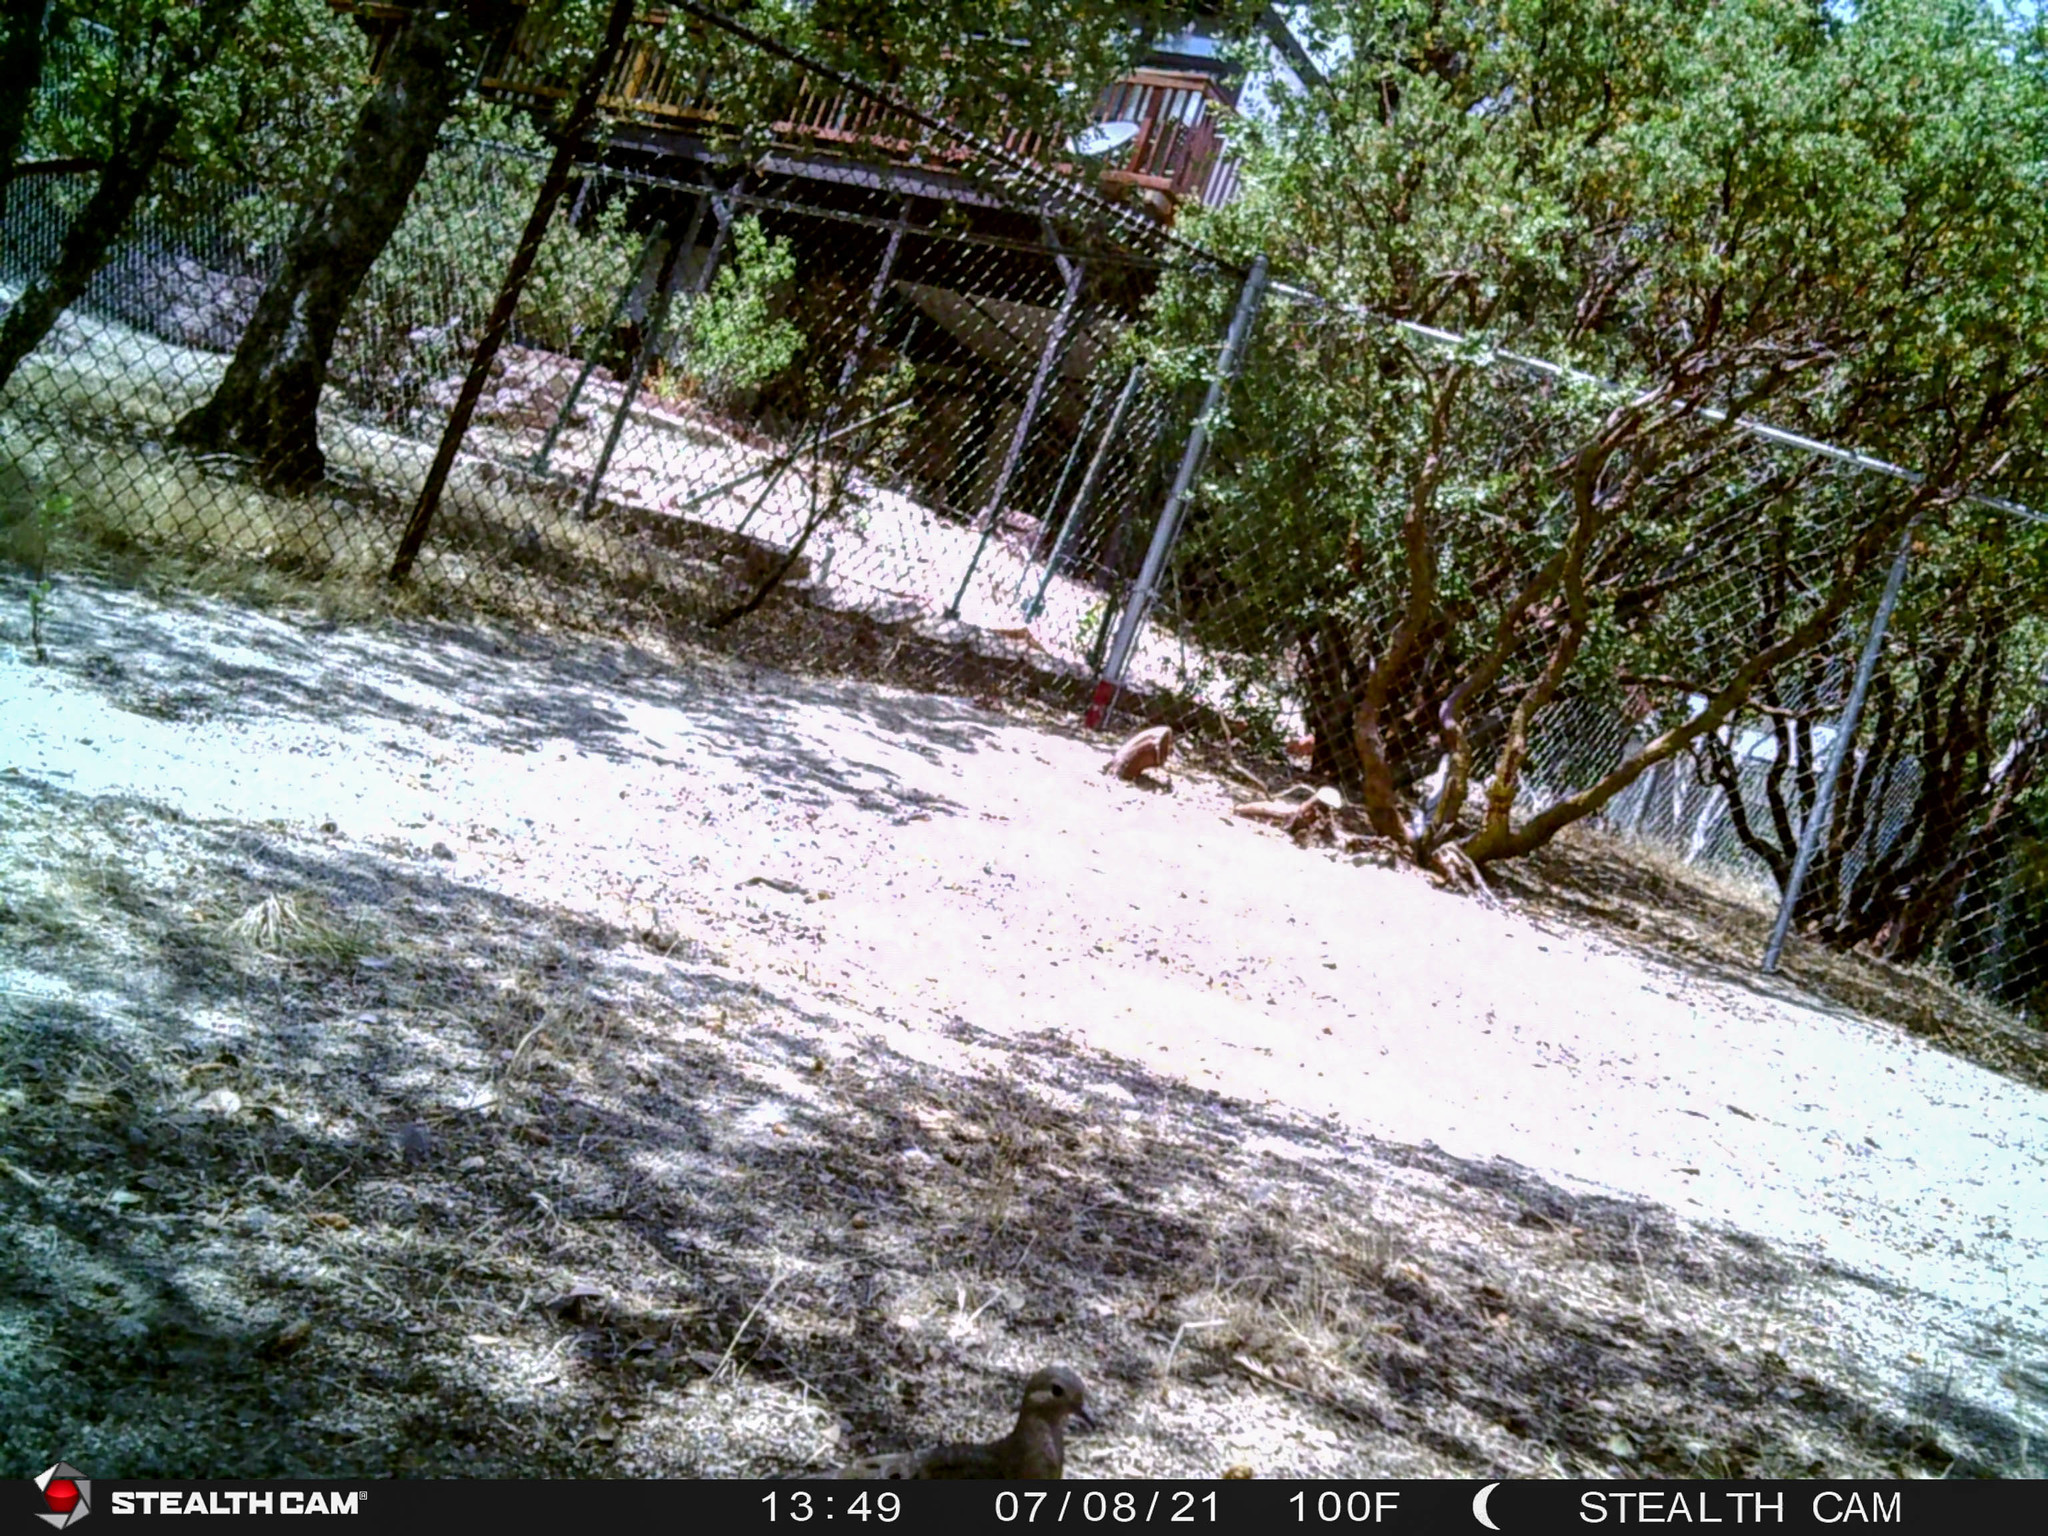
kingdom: Animalia
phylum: Chordata
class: Aves
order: Columbiformes
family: Columbidae
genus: Zenaida
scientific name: Zenaida macroura
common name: Mourning dove
